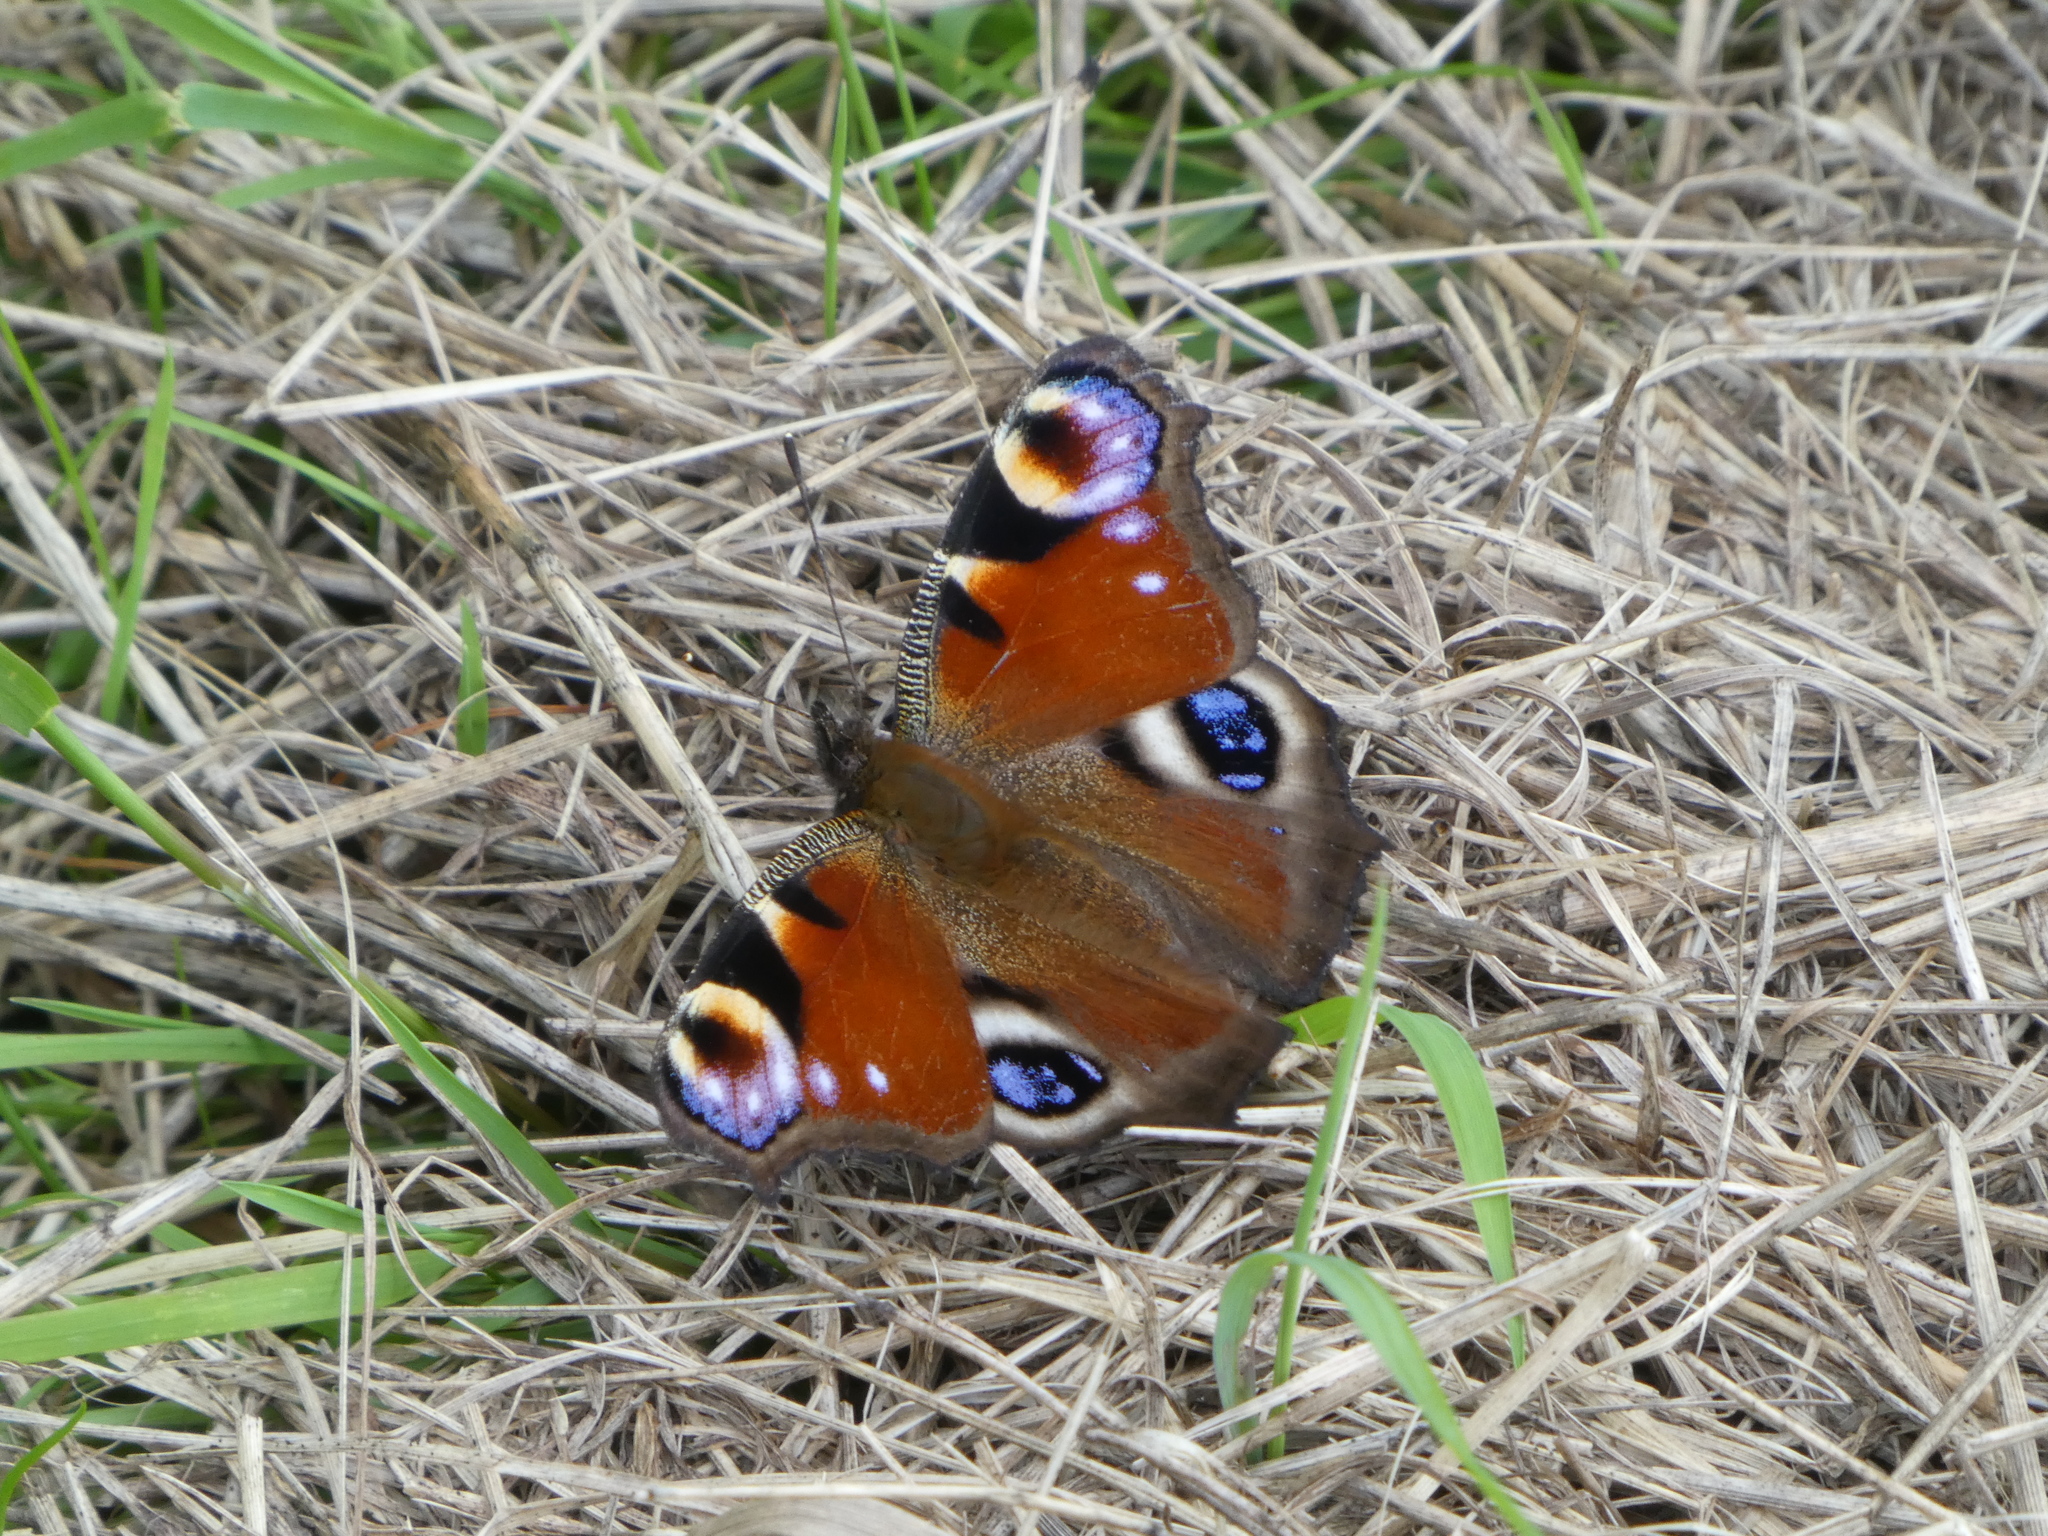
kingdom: Animalia
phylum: Arthropoda
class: Insecta
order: Lepidoptera
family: Nymphalidae
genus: Aglais
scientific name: Aglais io
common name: Peacock
